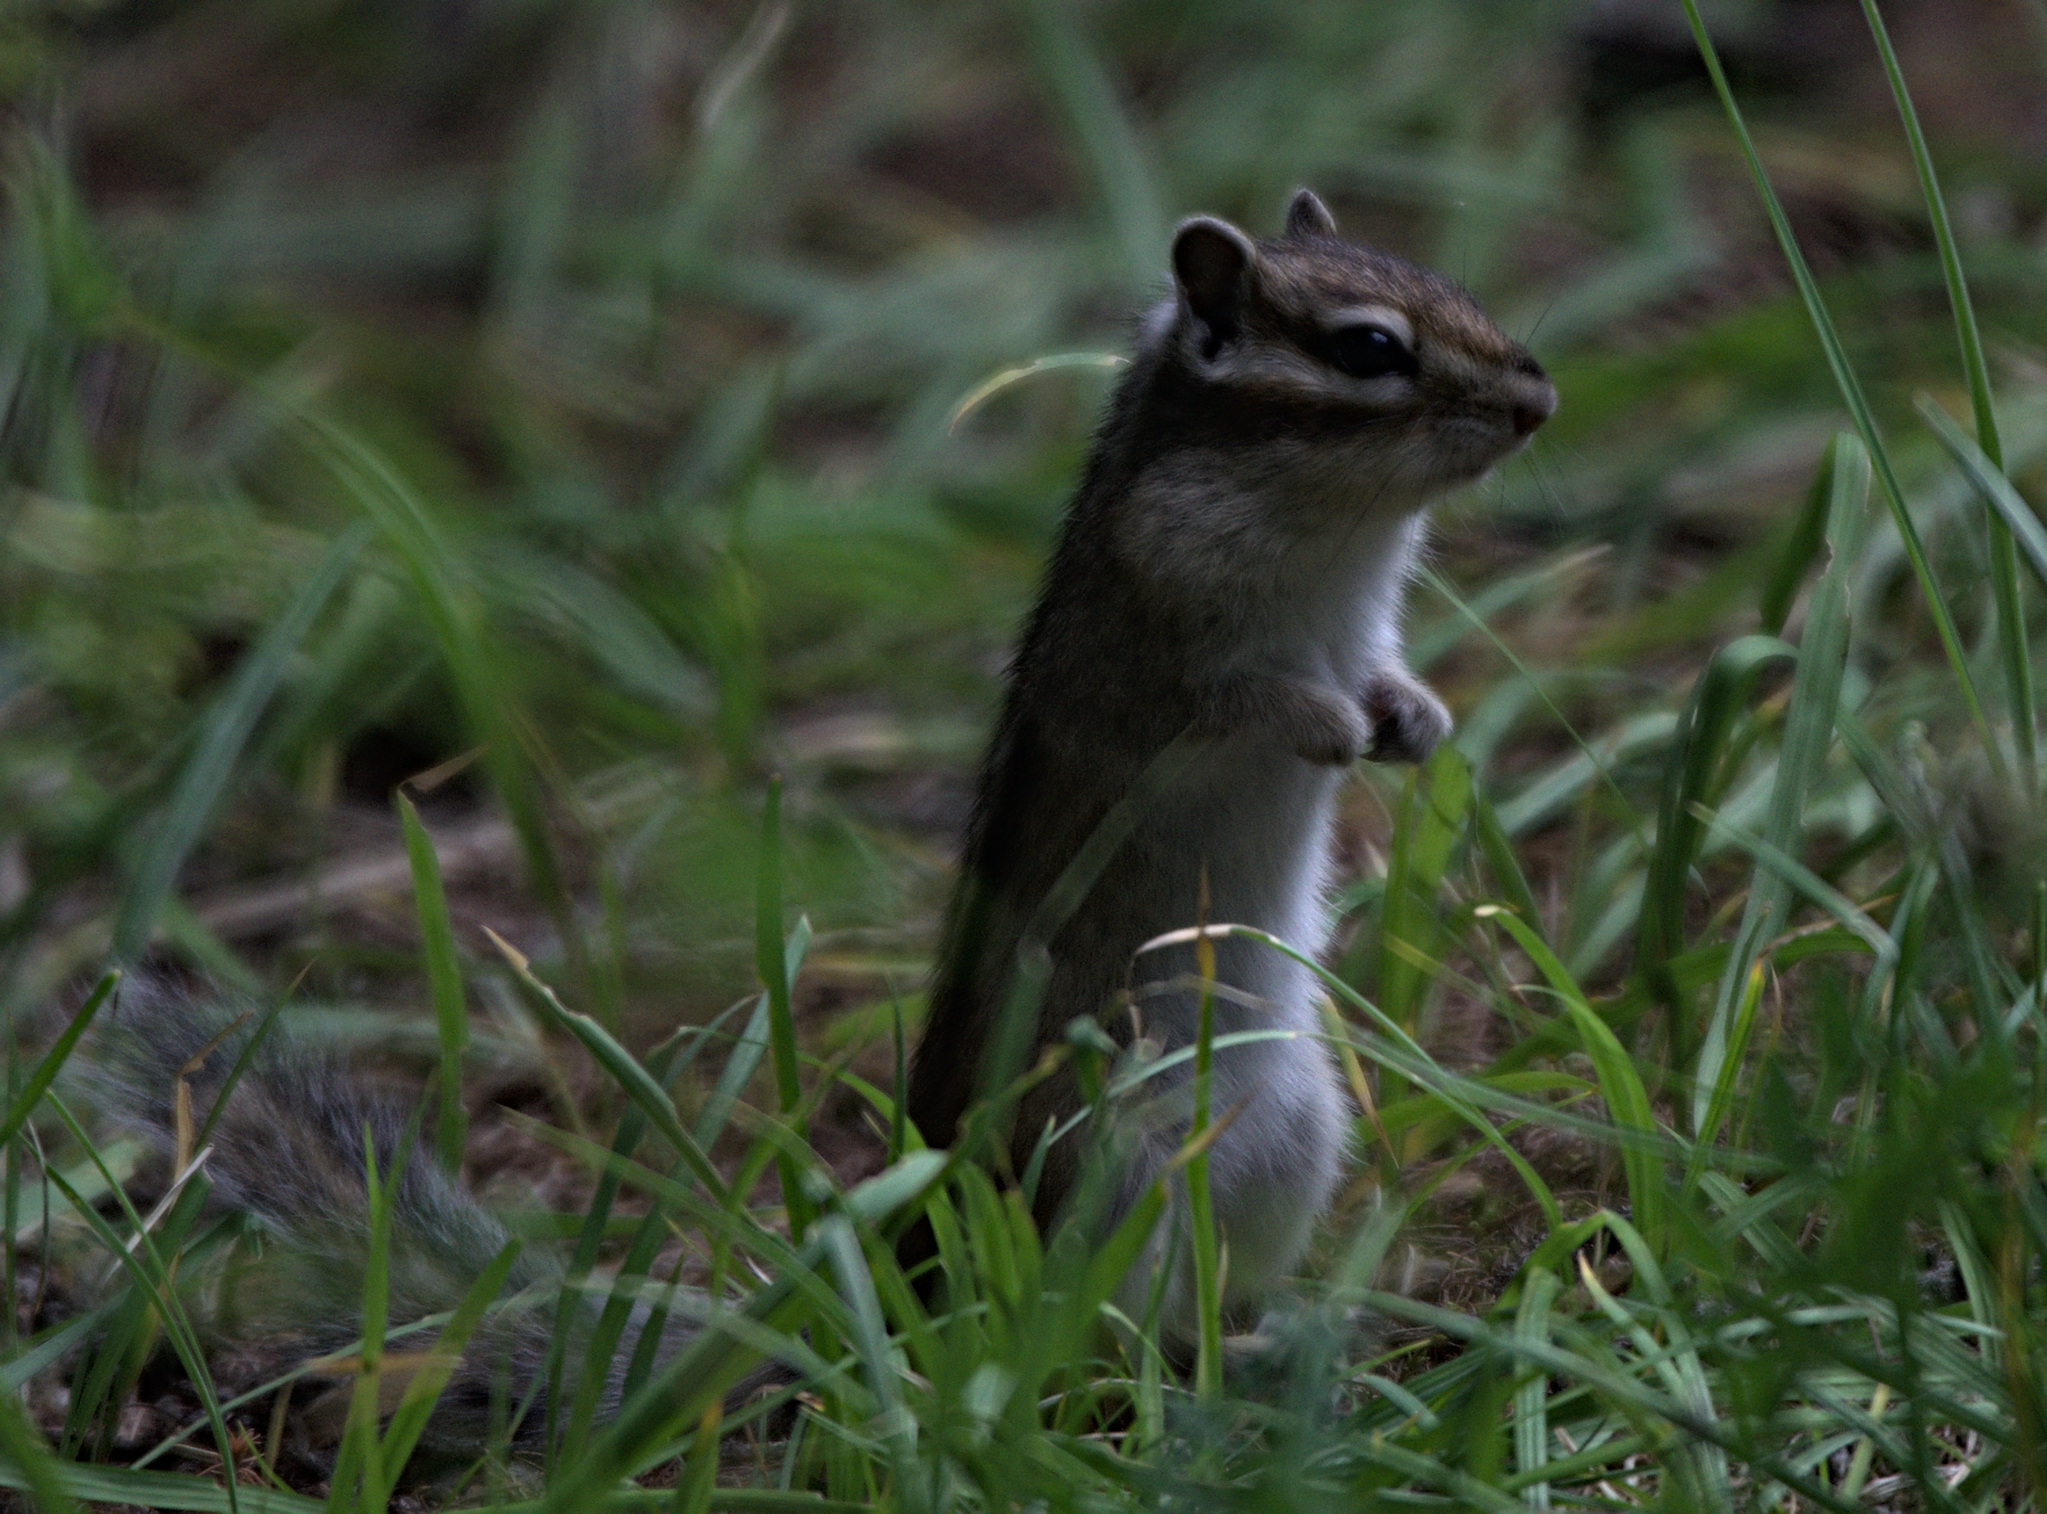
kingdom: Animalia
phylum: Chordata
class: Mammalia
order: Rodentia
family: Sciuridae
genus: Tamias
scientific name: Tamias sibiricus
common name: Siberian chipmunk
